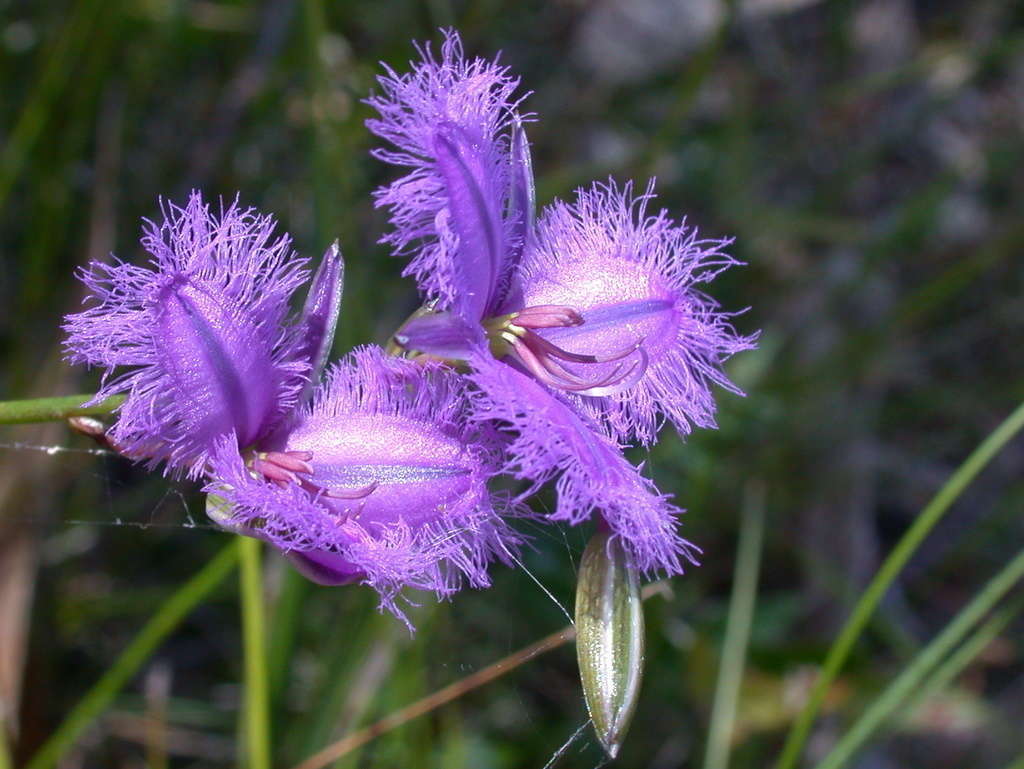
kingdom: Plantae
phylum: Tracheophyta
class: Liliopsida
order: Asparagales
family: Asparagaceae
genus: Thysanotus
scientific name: Thysanotus tuberosus
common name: Common fringed-lily
